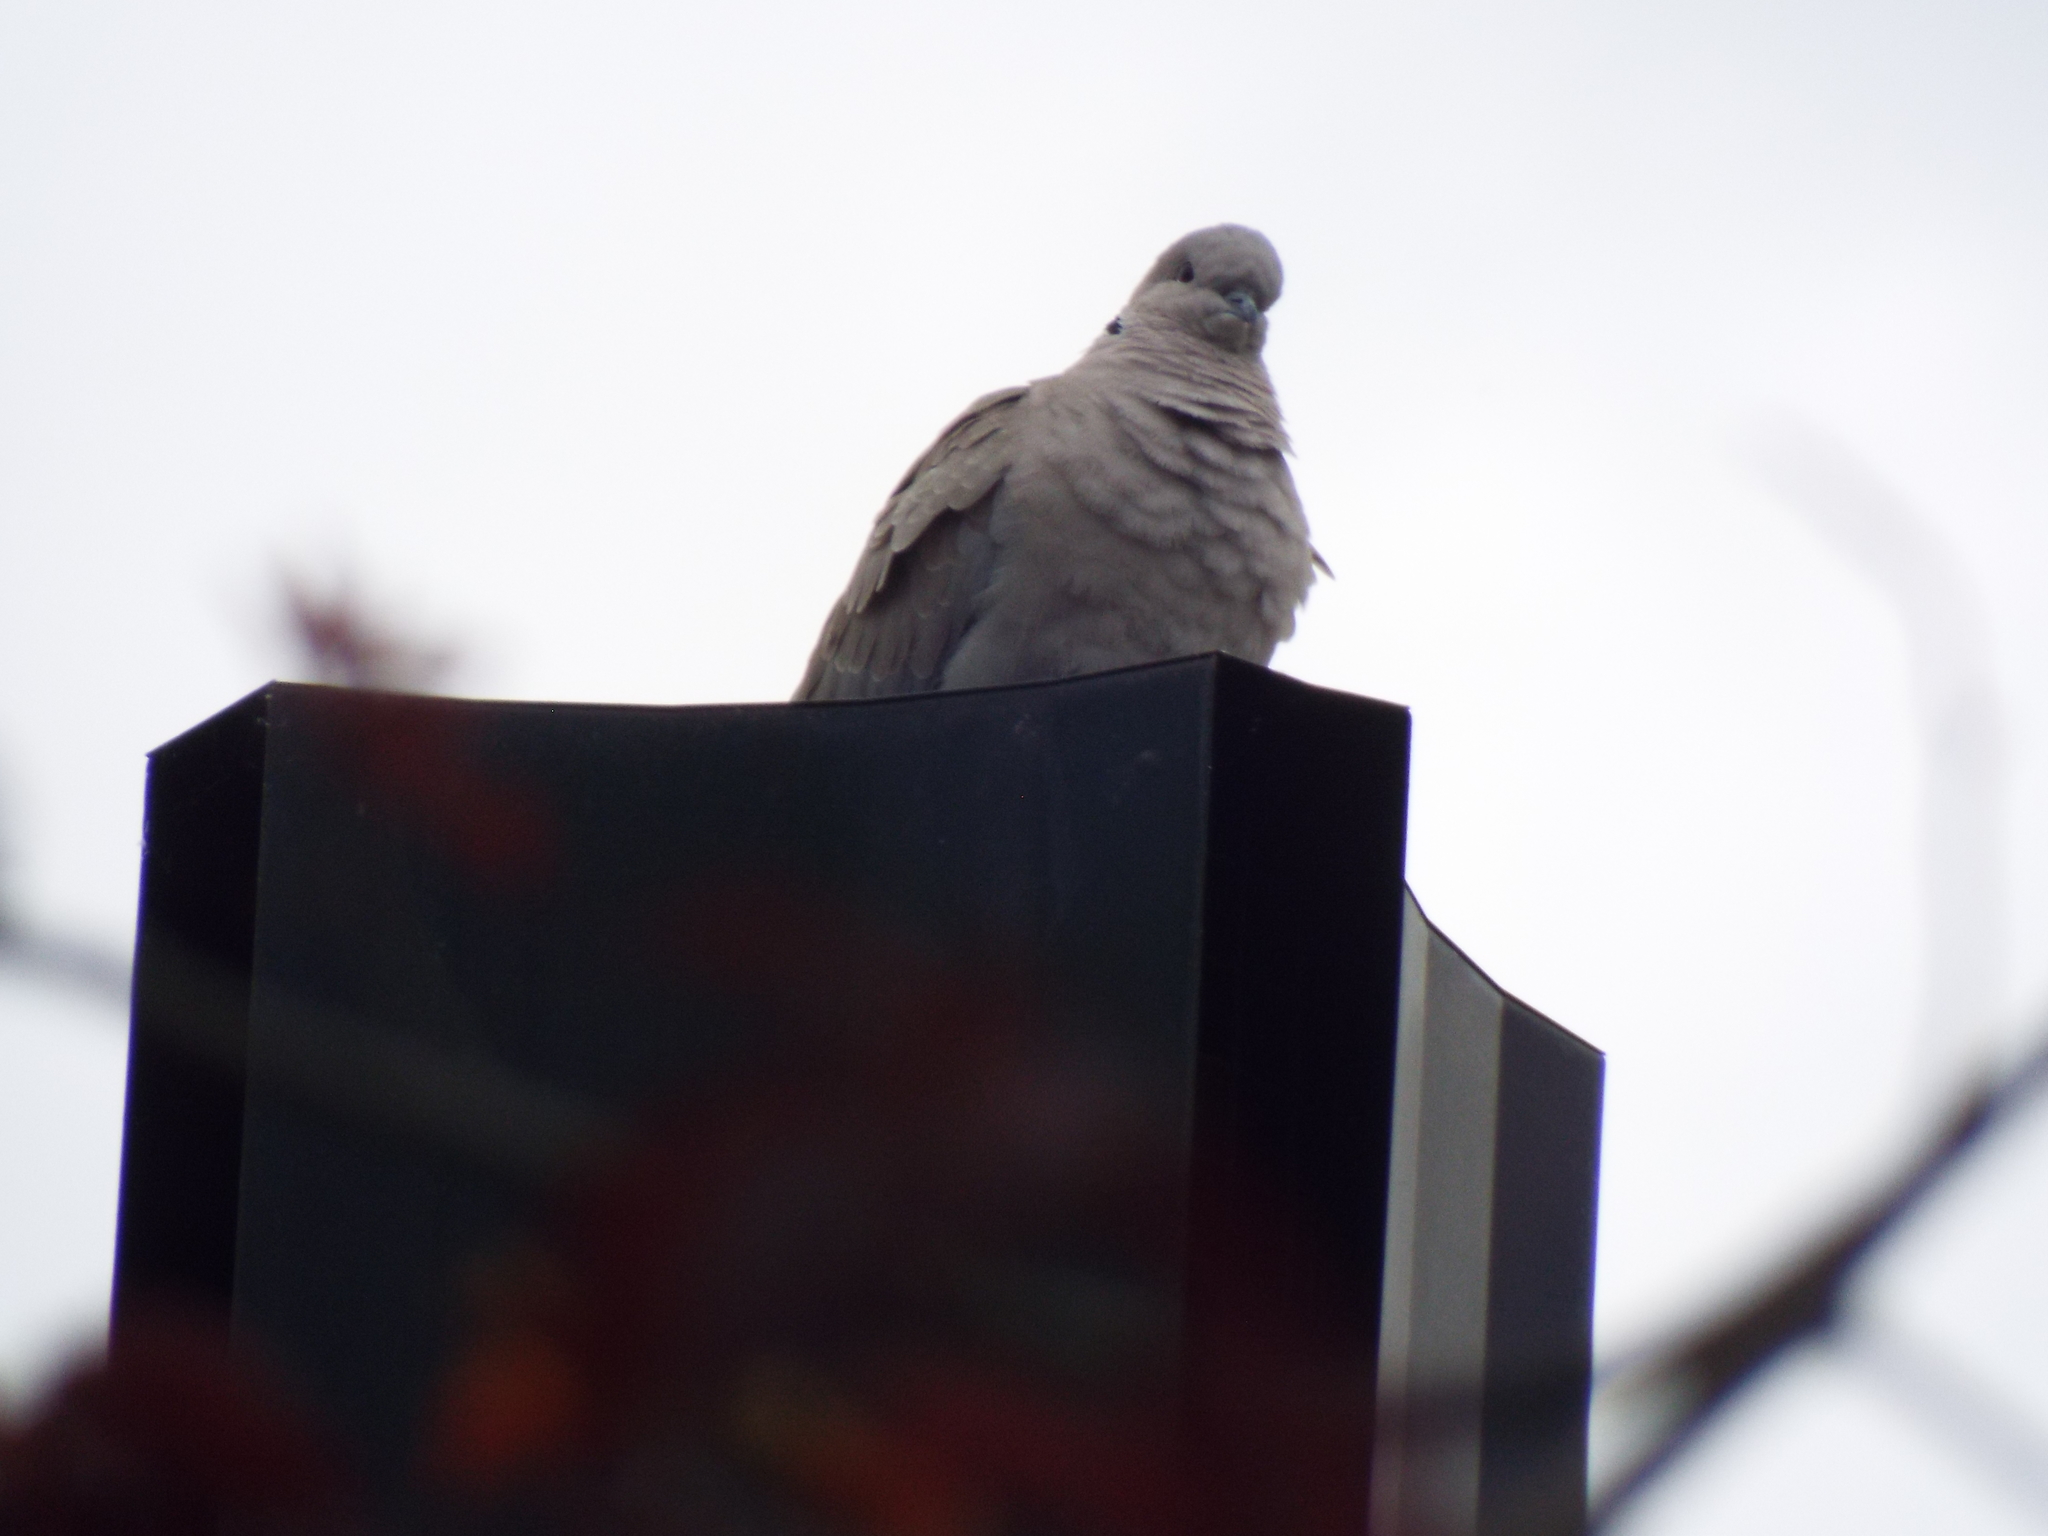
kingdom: Animalia
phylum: Chordata
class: Aves
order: Columbiformes
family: Columbidae
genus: Streptopelia
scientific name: Streptopelia decaocto
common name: Eurasian collared dove
